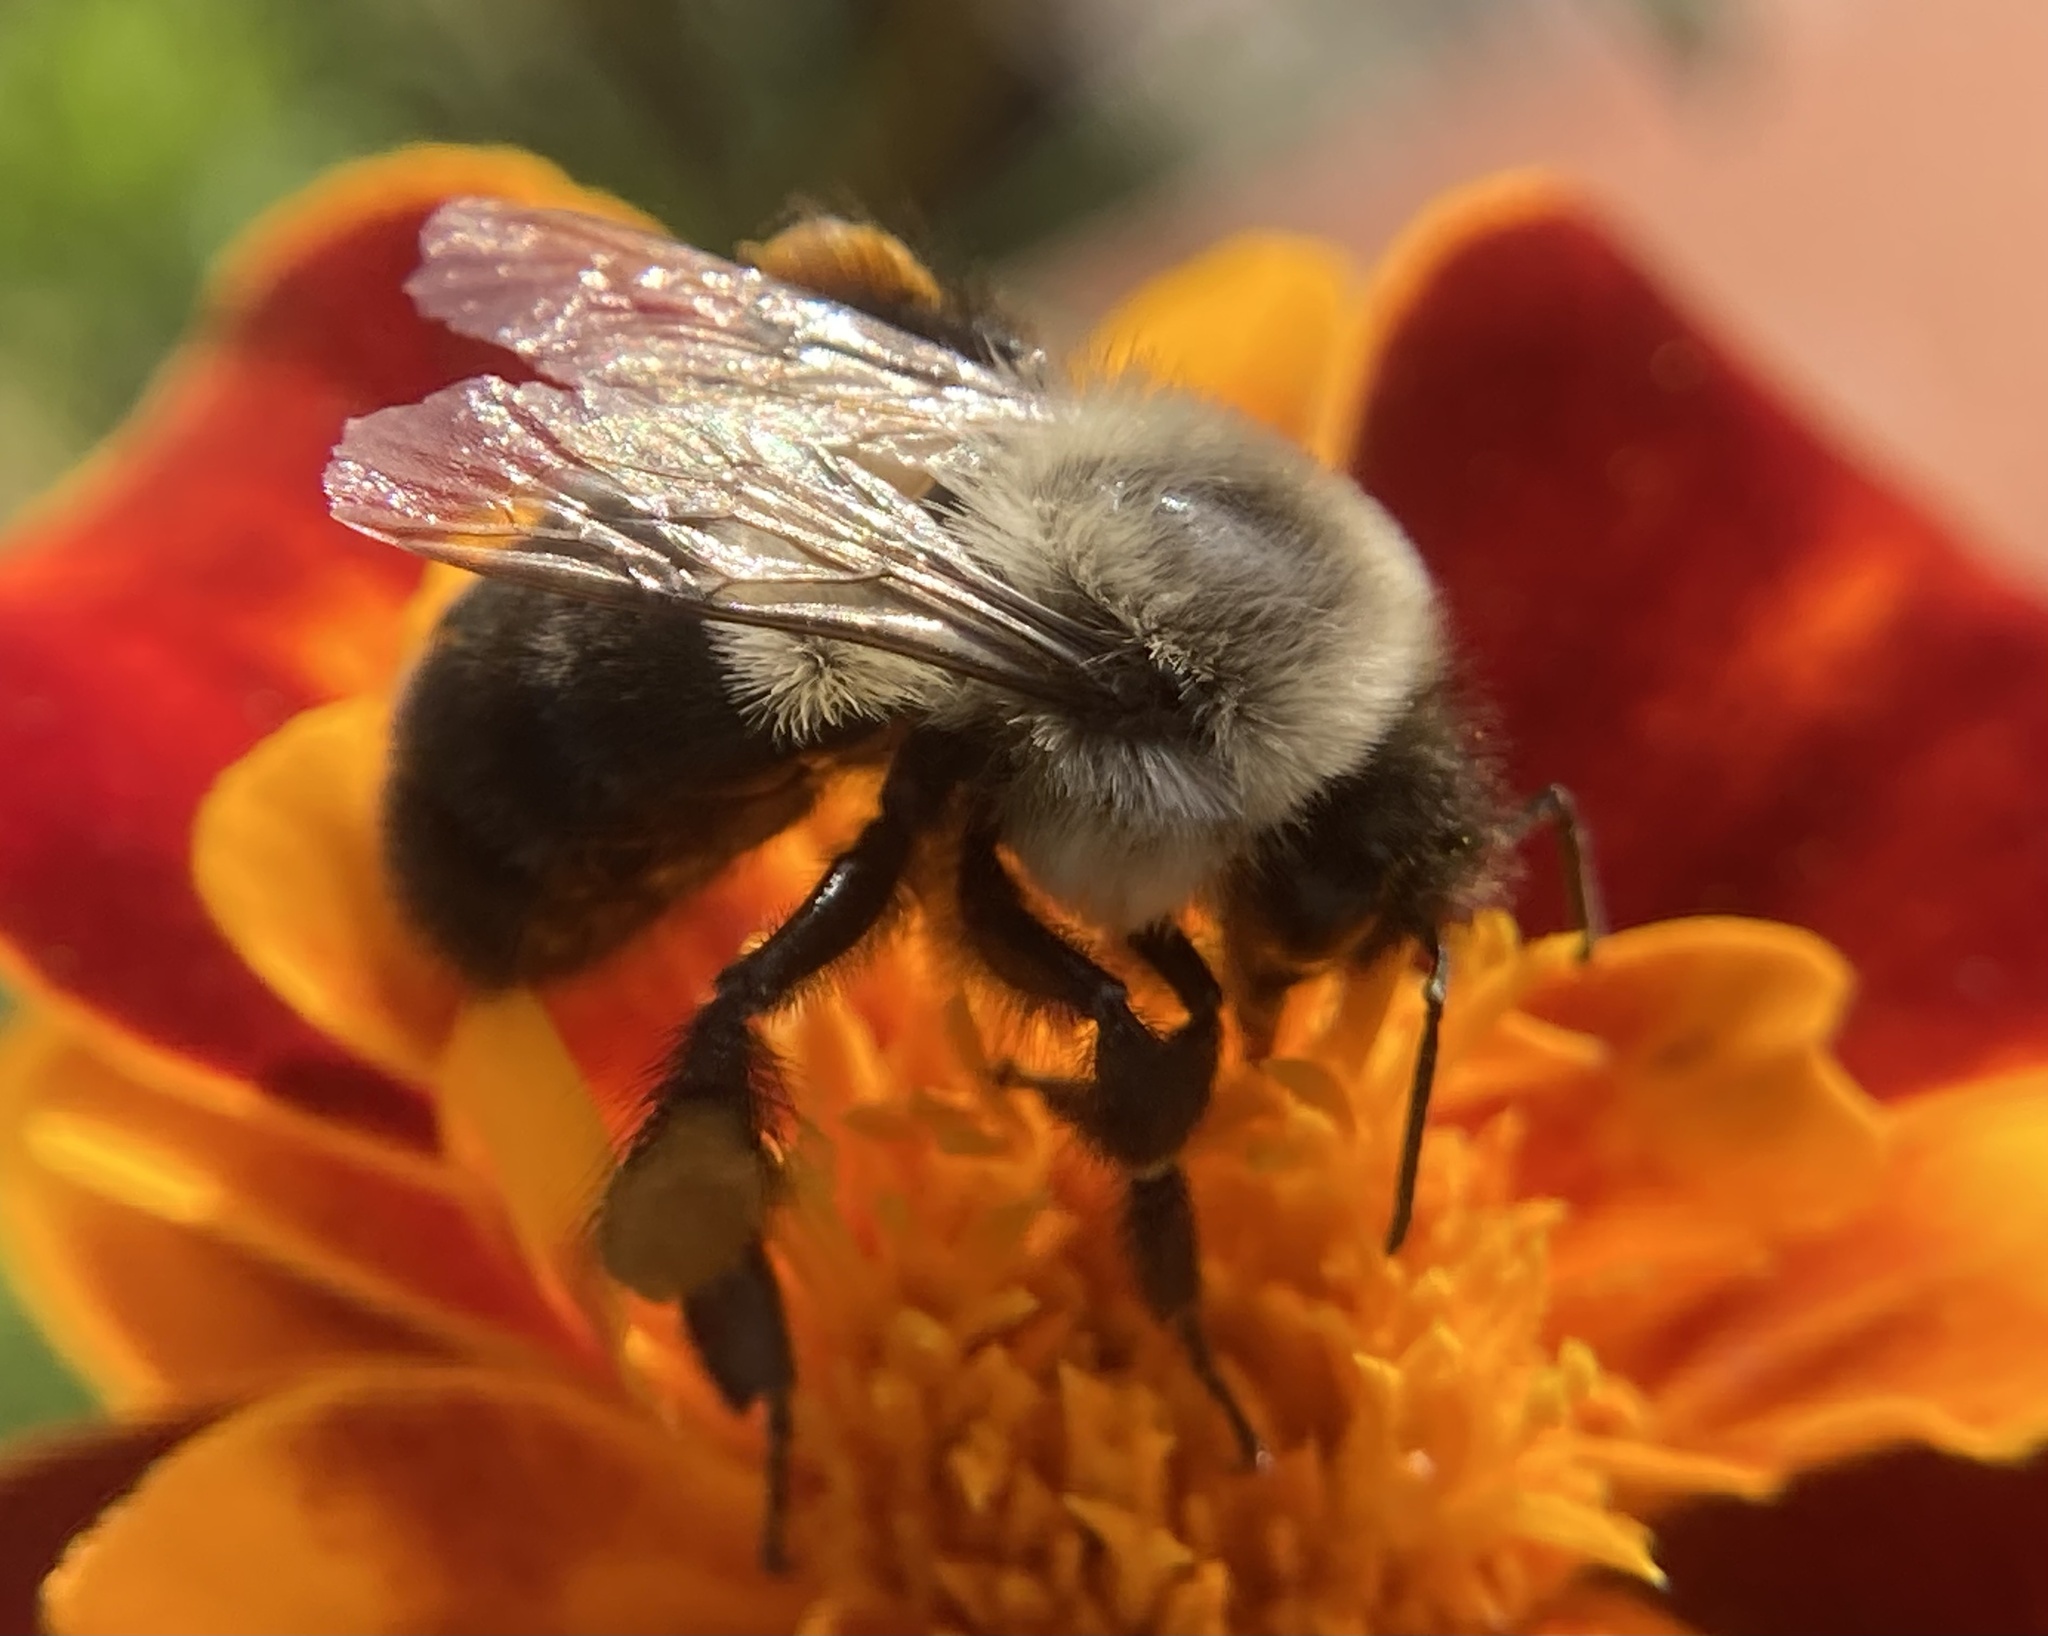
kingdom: Animalia
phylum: Arthropoda
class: Insecta
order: Hymenoptera
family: Apidae
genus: Bombus
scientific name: Bombus impatiens
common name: Common eastern bumble bee
